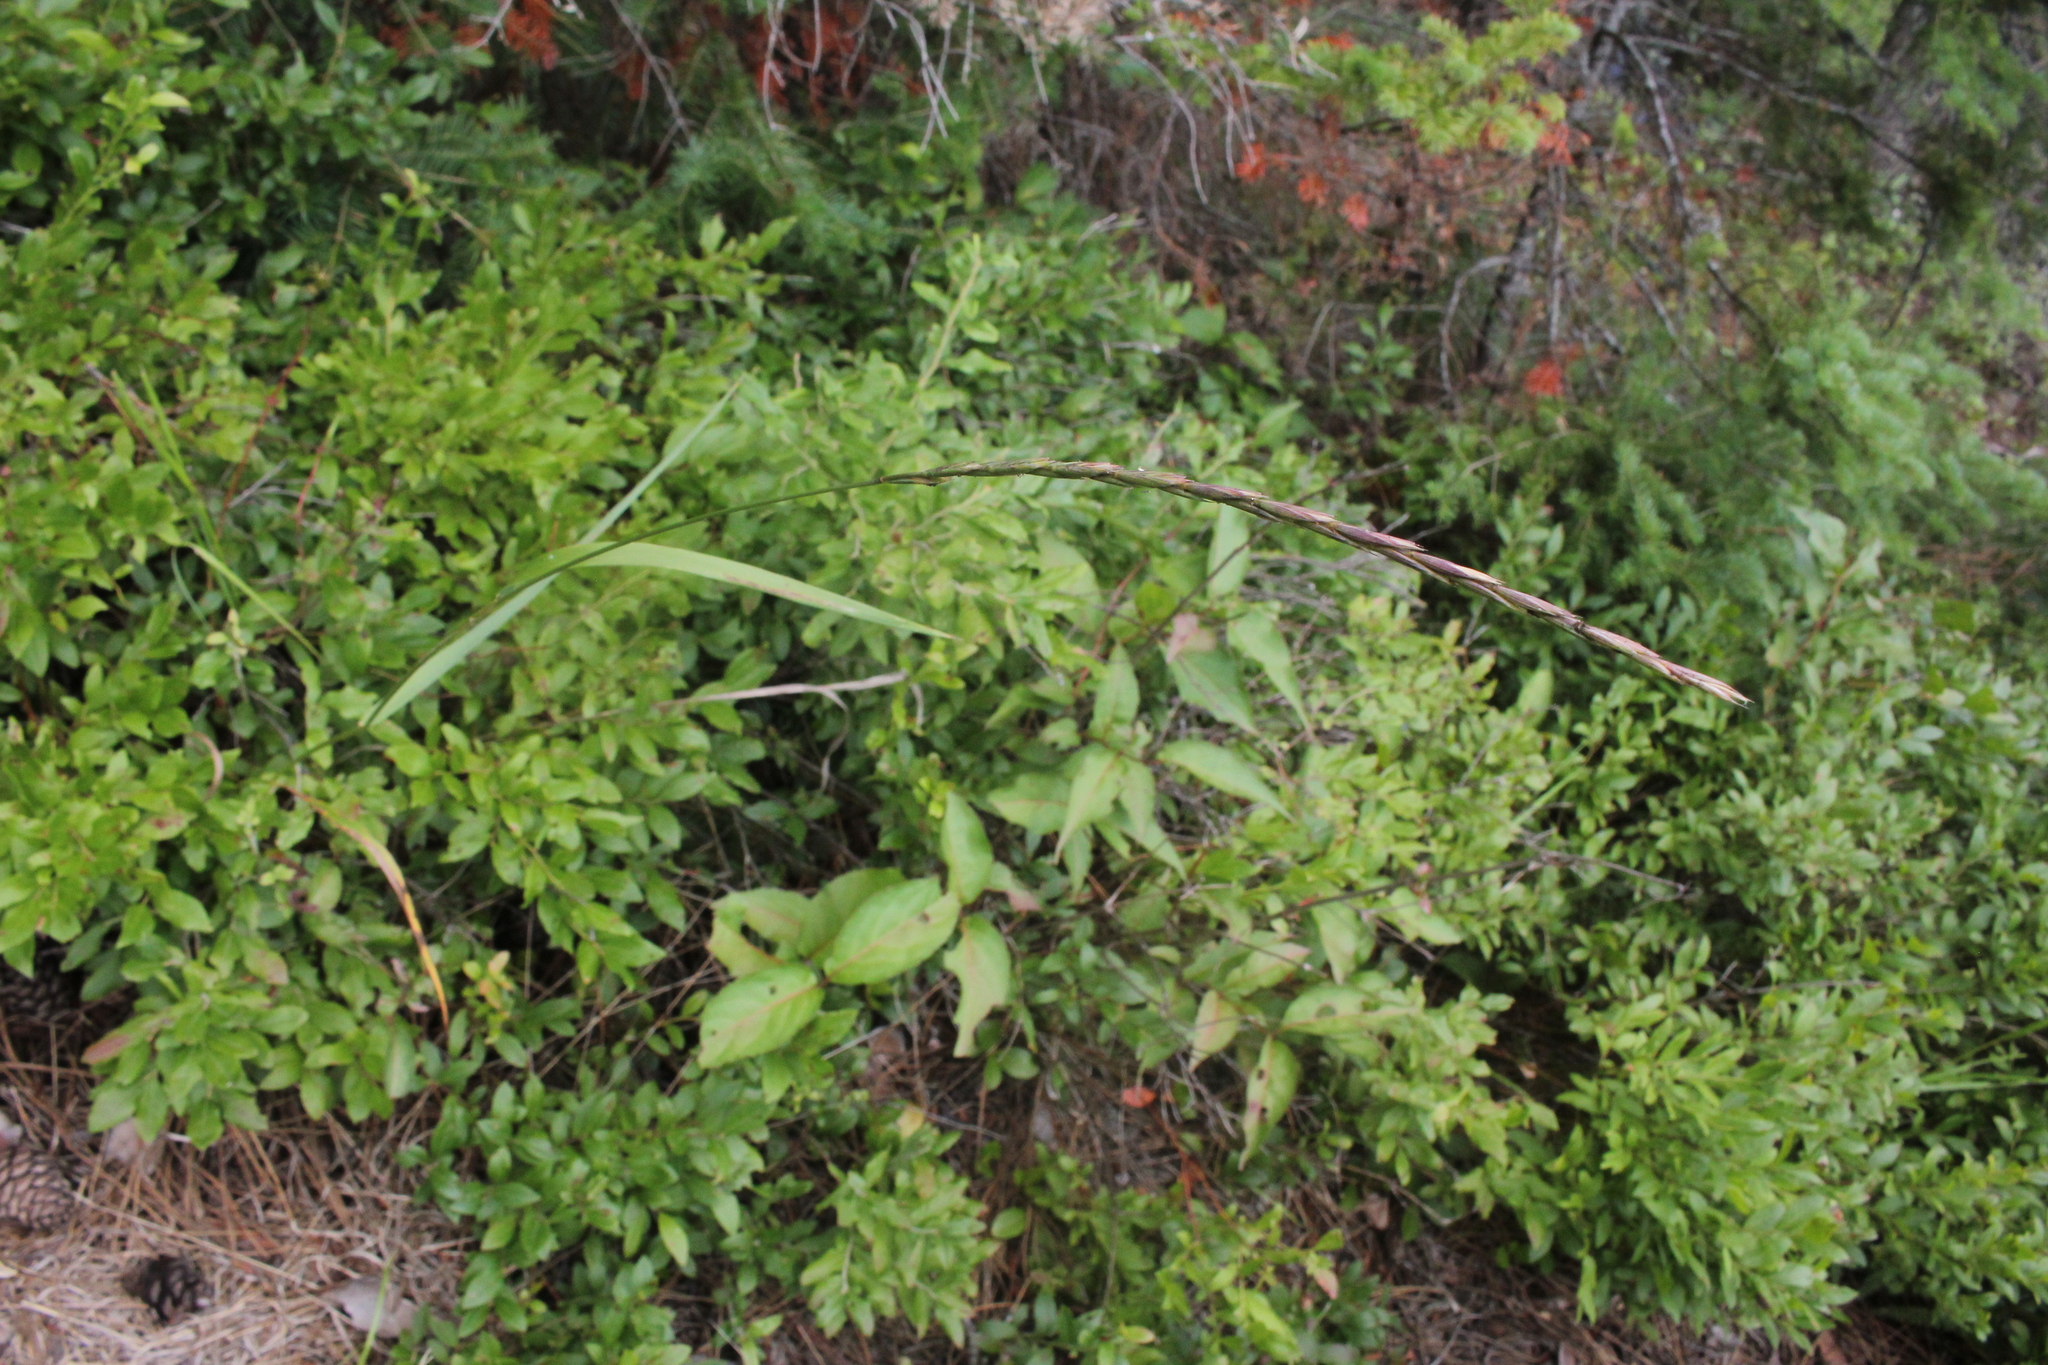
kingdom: Plantae
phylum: Tracheophyta
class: Liliopsida
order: Poales
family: Poaceae
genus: Elymus
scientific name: Elymus violaceus
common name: Arctic wheatgrass
